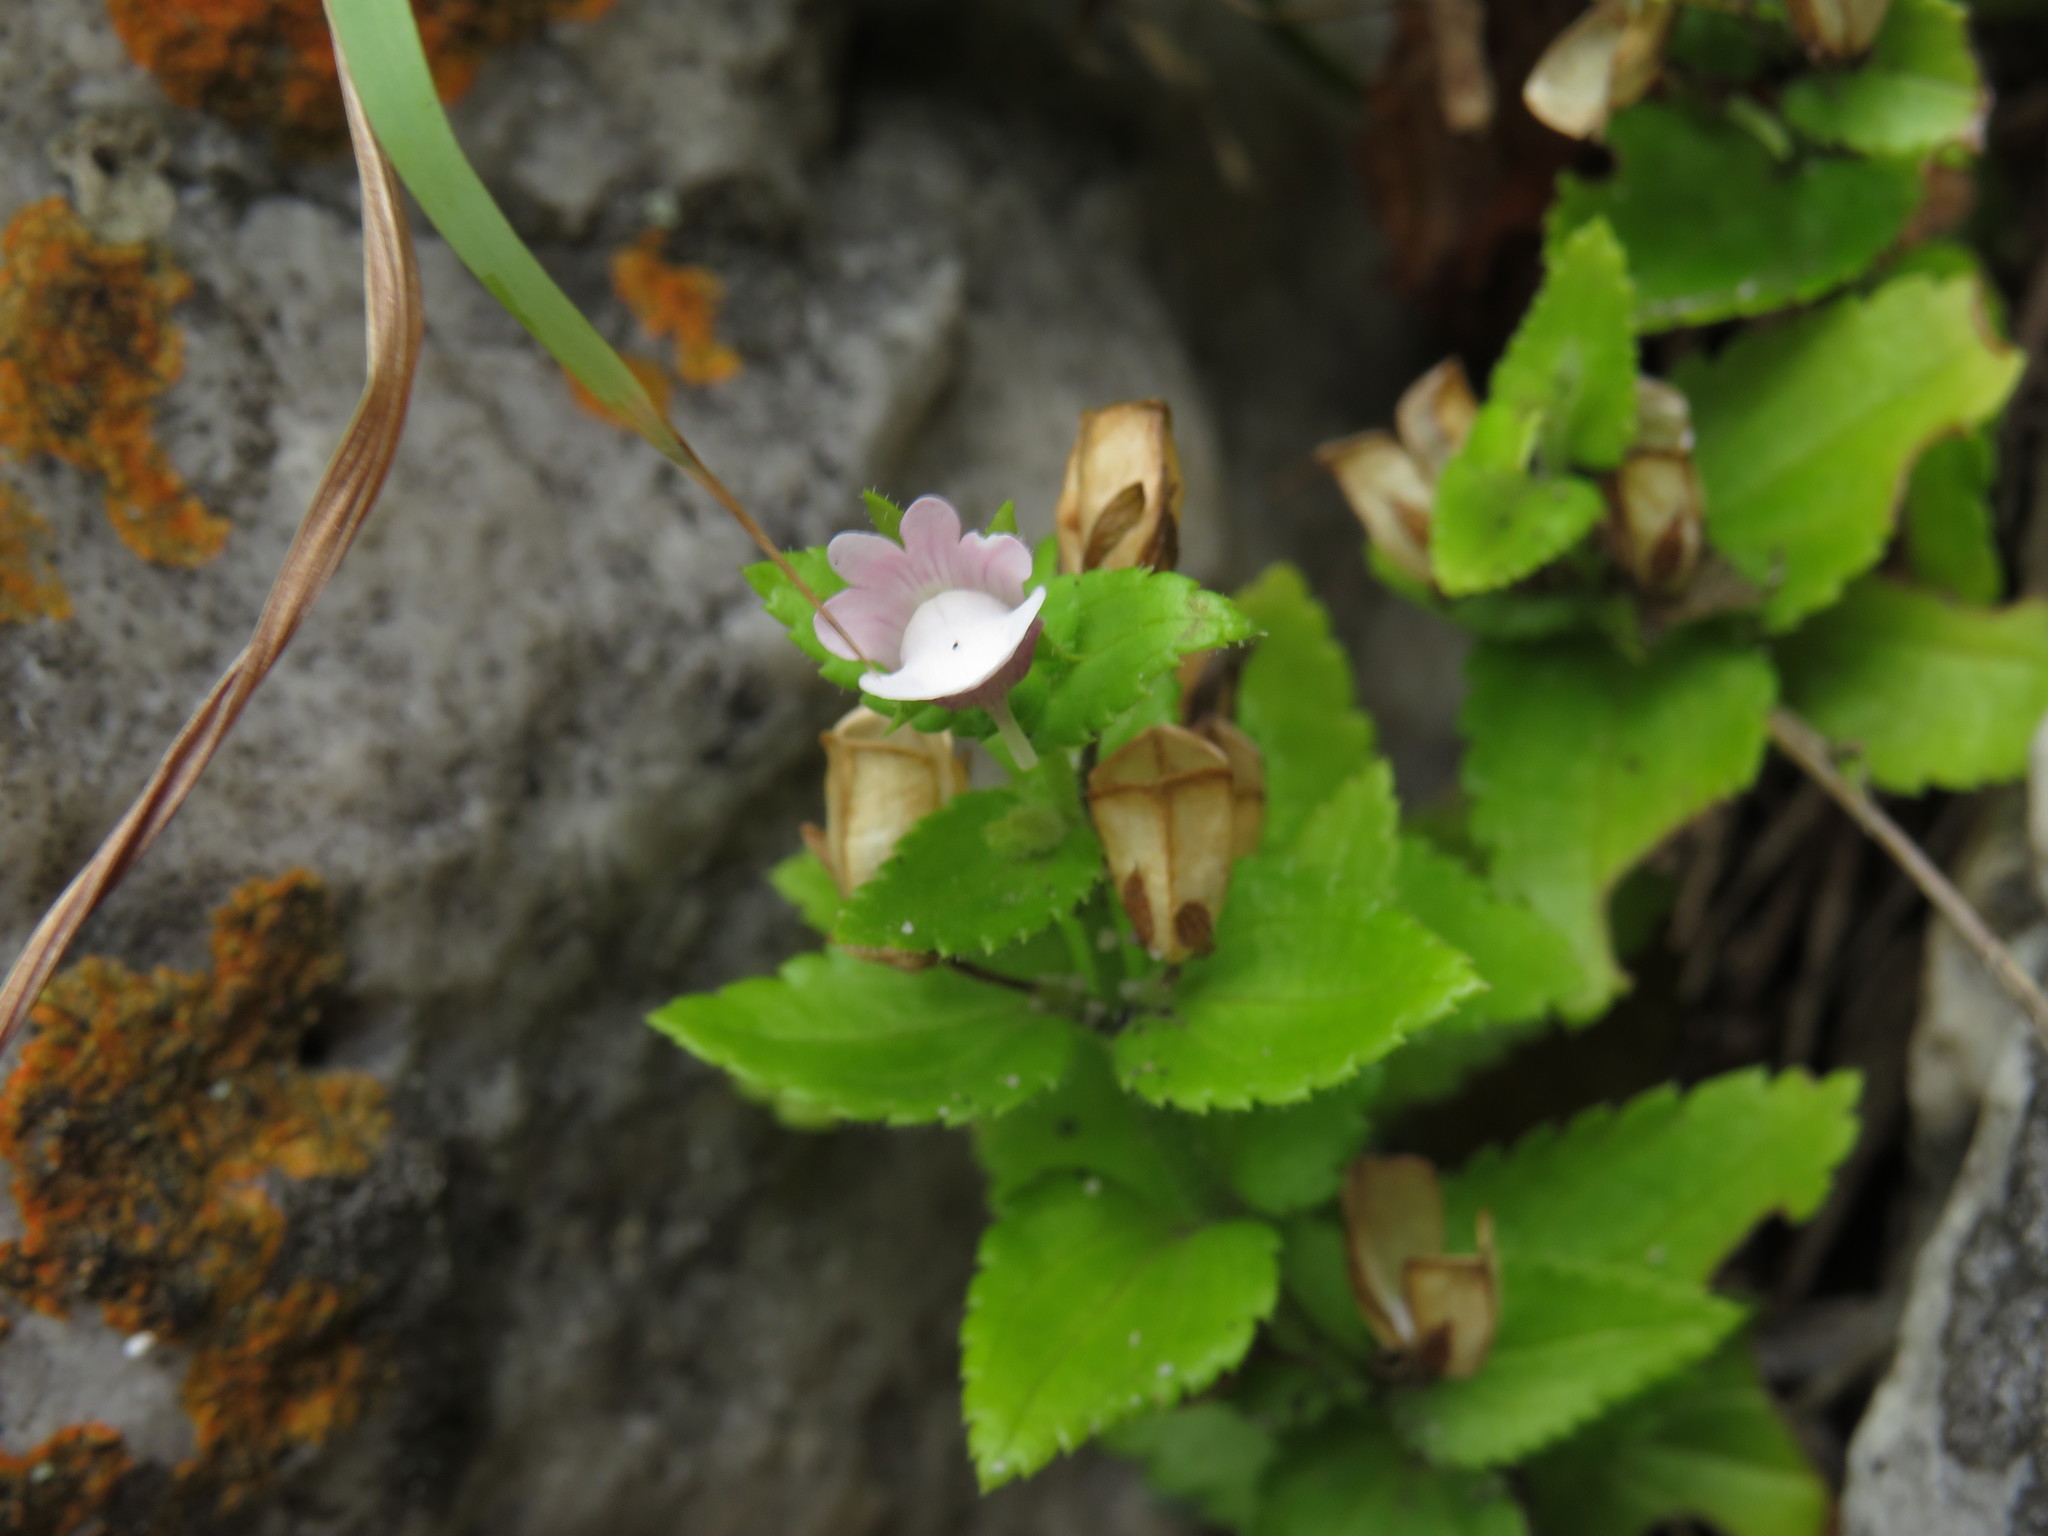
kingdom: Plantae
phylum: Tracheophyta
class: Magnoliopsida
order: Lamiales
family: Scrophulariaceae
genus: Nemesia
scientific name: Nemesia macrocarpa
